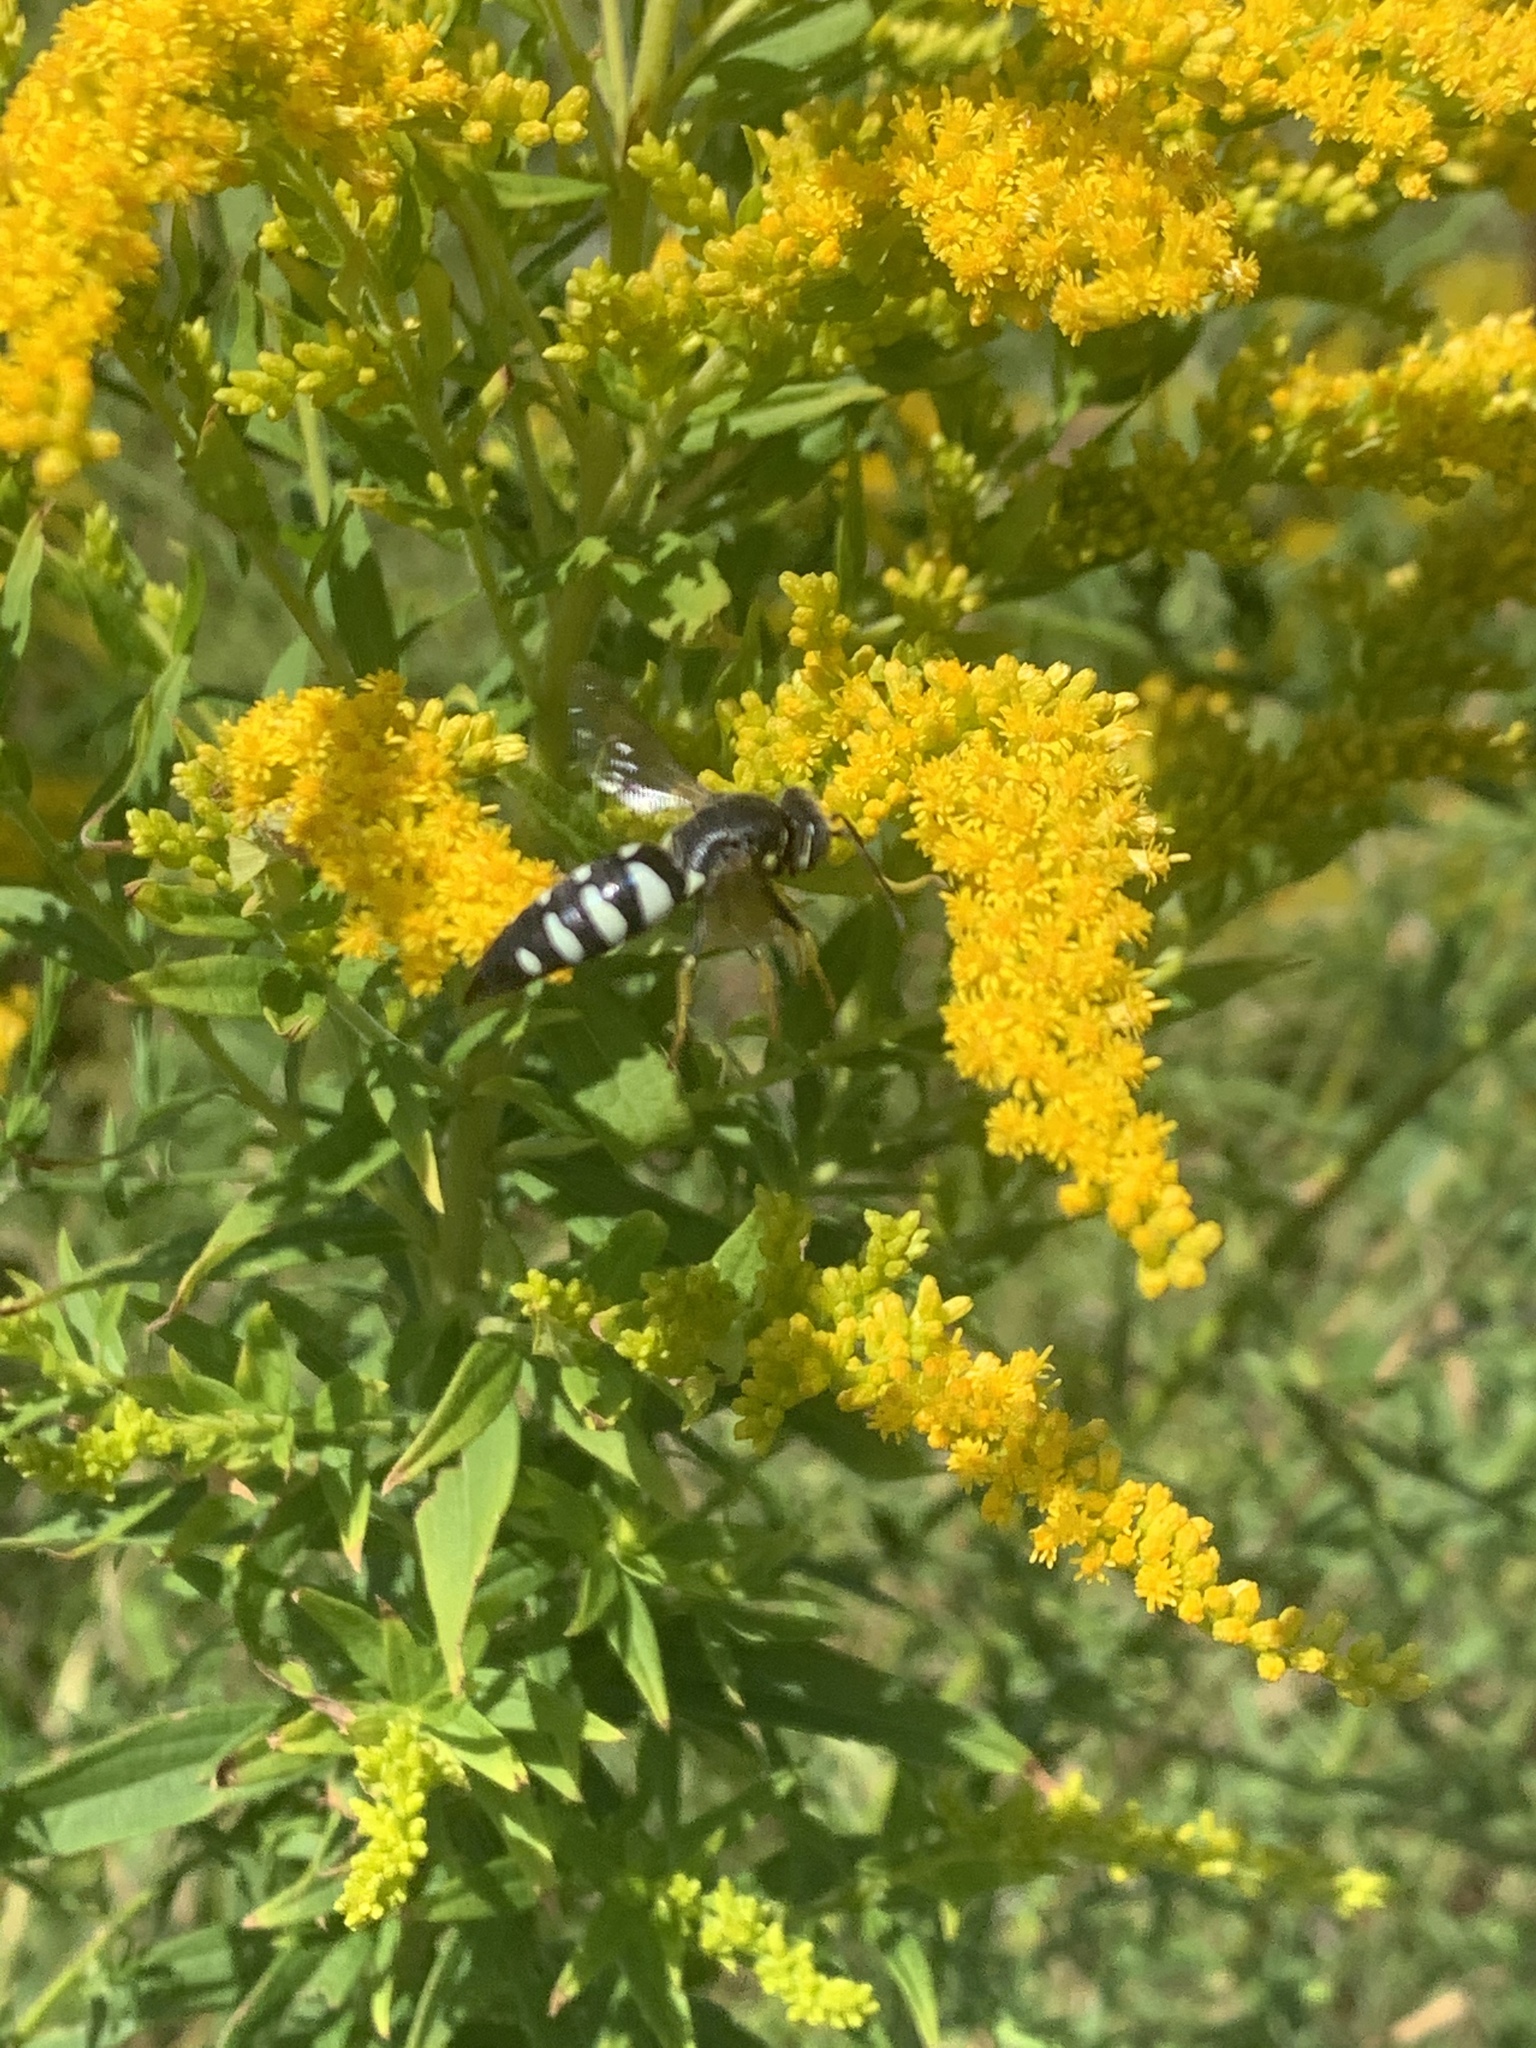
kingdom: Animalia
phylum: Arthropoda
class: Insecta
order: Hymenoptera
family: Crabronidae
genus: Bicyrtes
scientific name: Bicyrtes quadrifasciatus
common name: Four-banded stink bug hunter wasp
